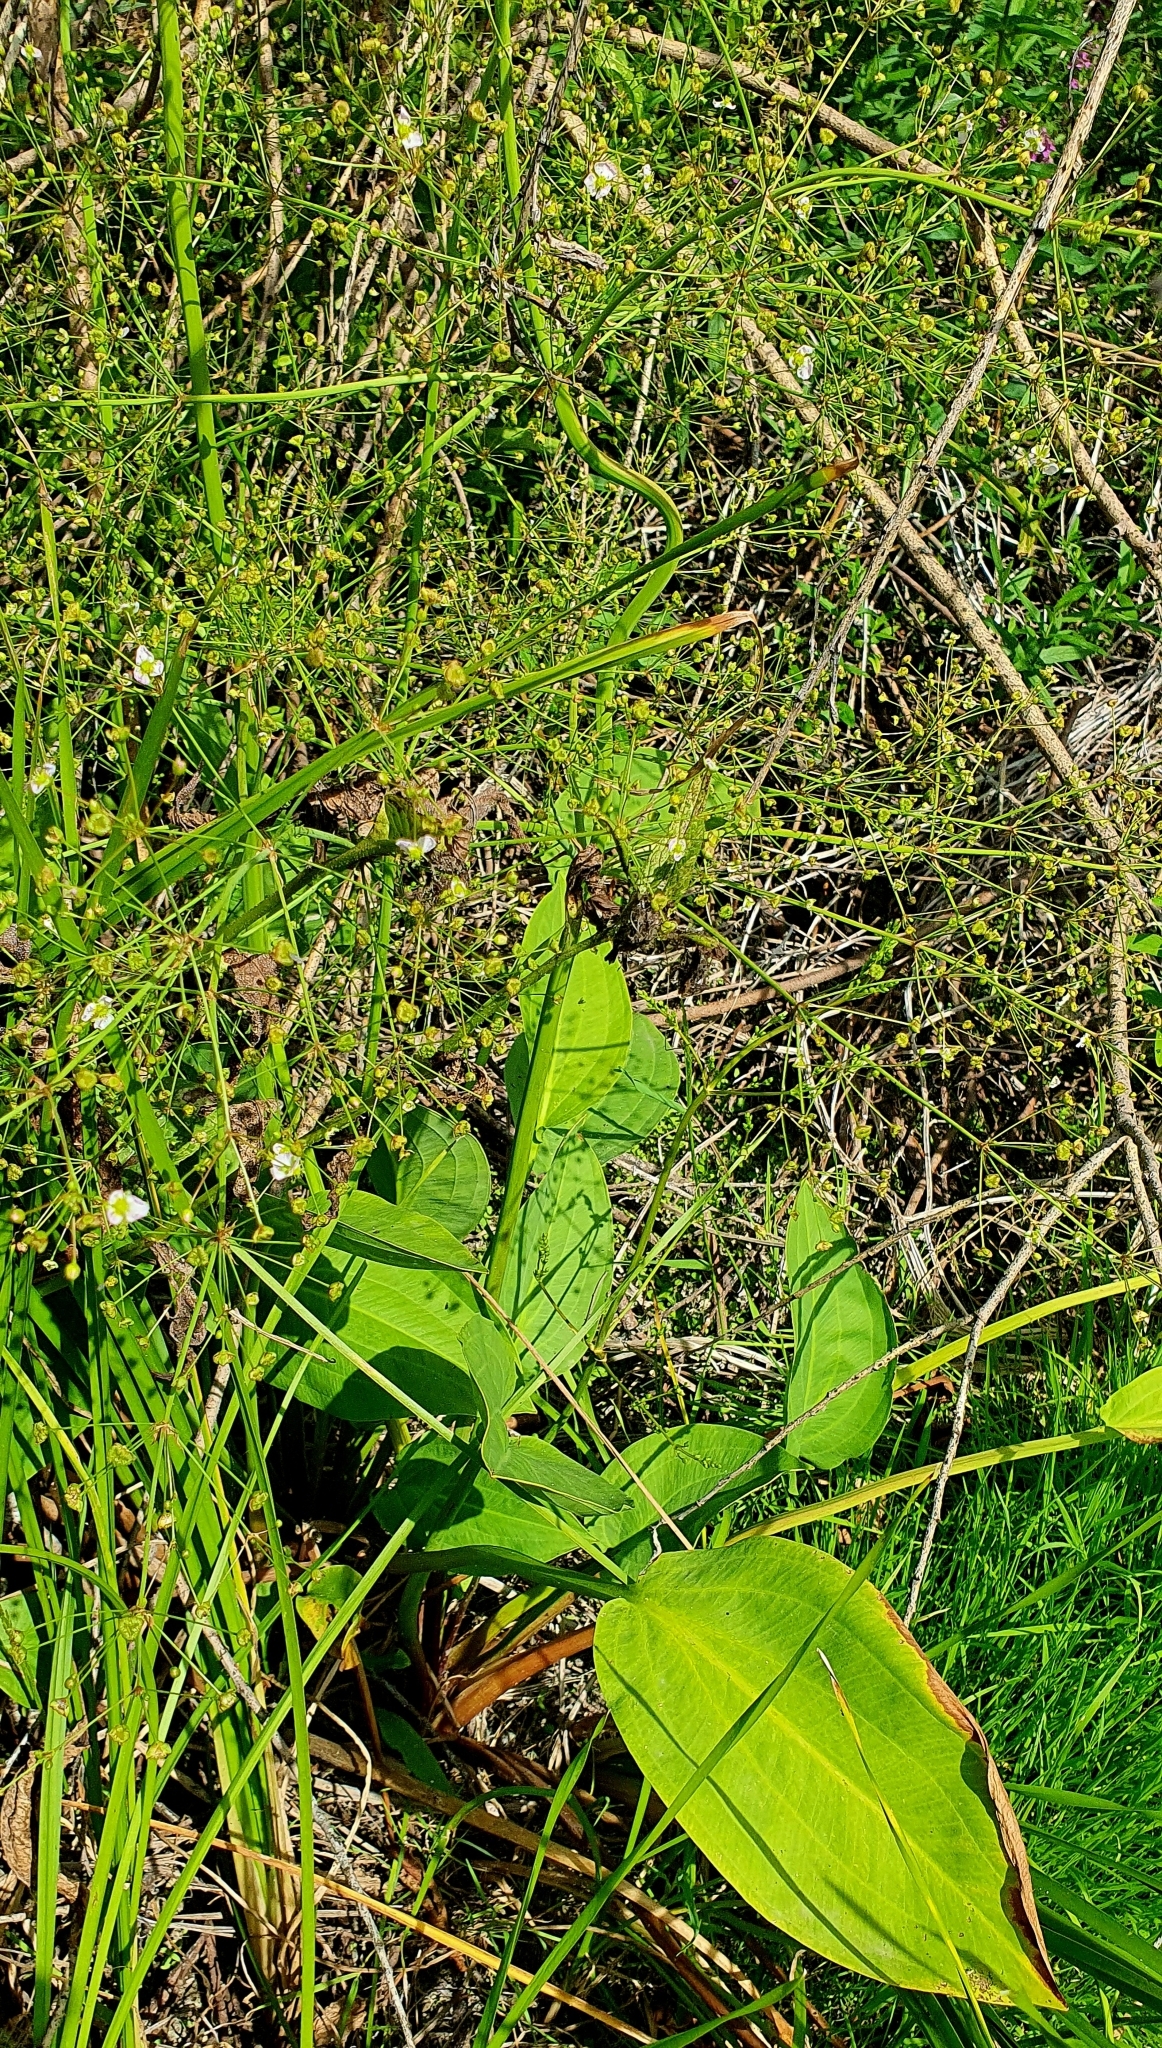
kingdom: Plantae
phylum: Tracheophyta
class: Liliopsida
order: Alismatales
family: Alismataceae
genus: Alisma
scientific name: Alisma plantago-aquatica
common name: Water-plantain
